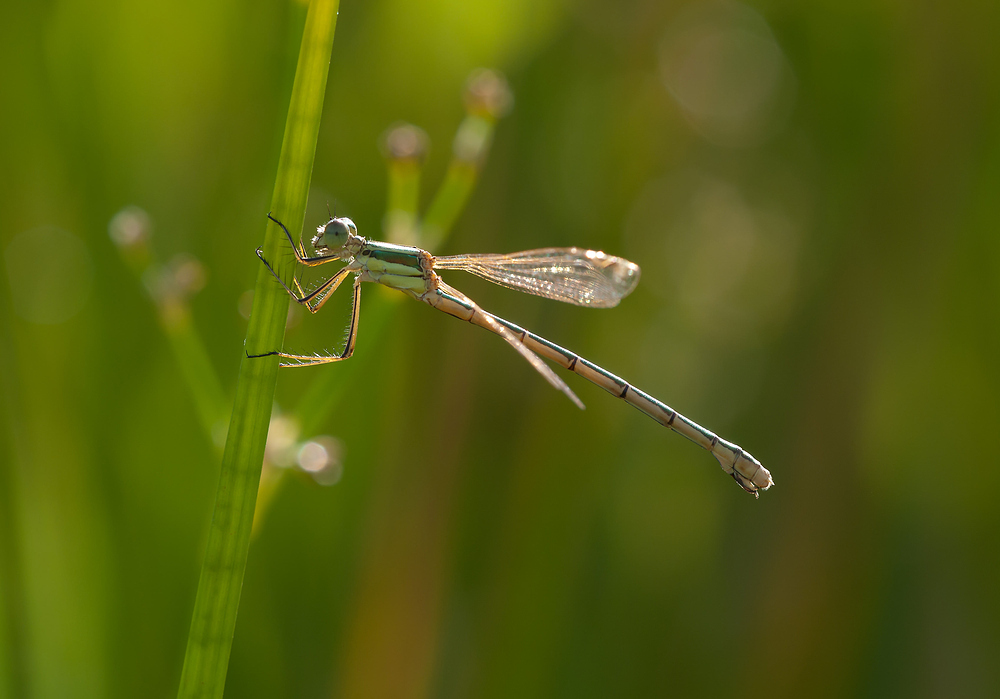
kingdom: Animalia
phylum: Arthropoda
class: Insecta
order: Odonata
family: Lestidae
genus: Lestes
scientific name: Lestes barbarus
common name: Migrant spreadwing
